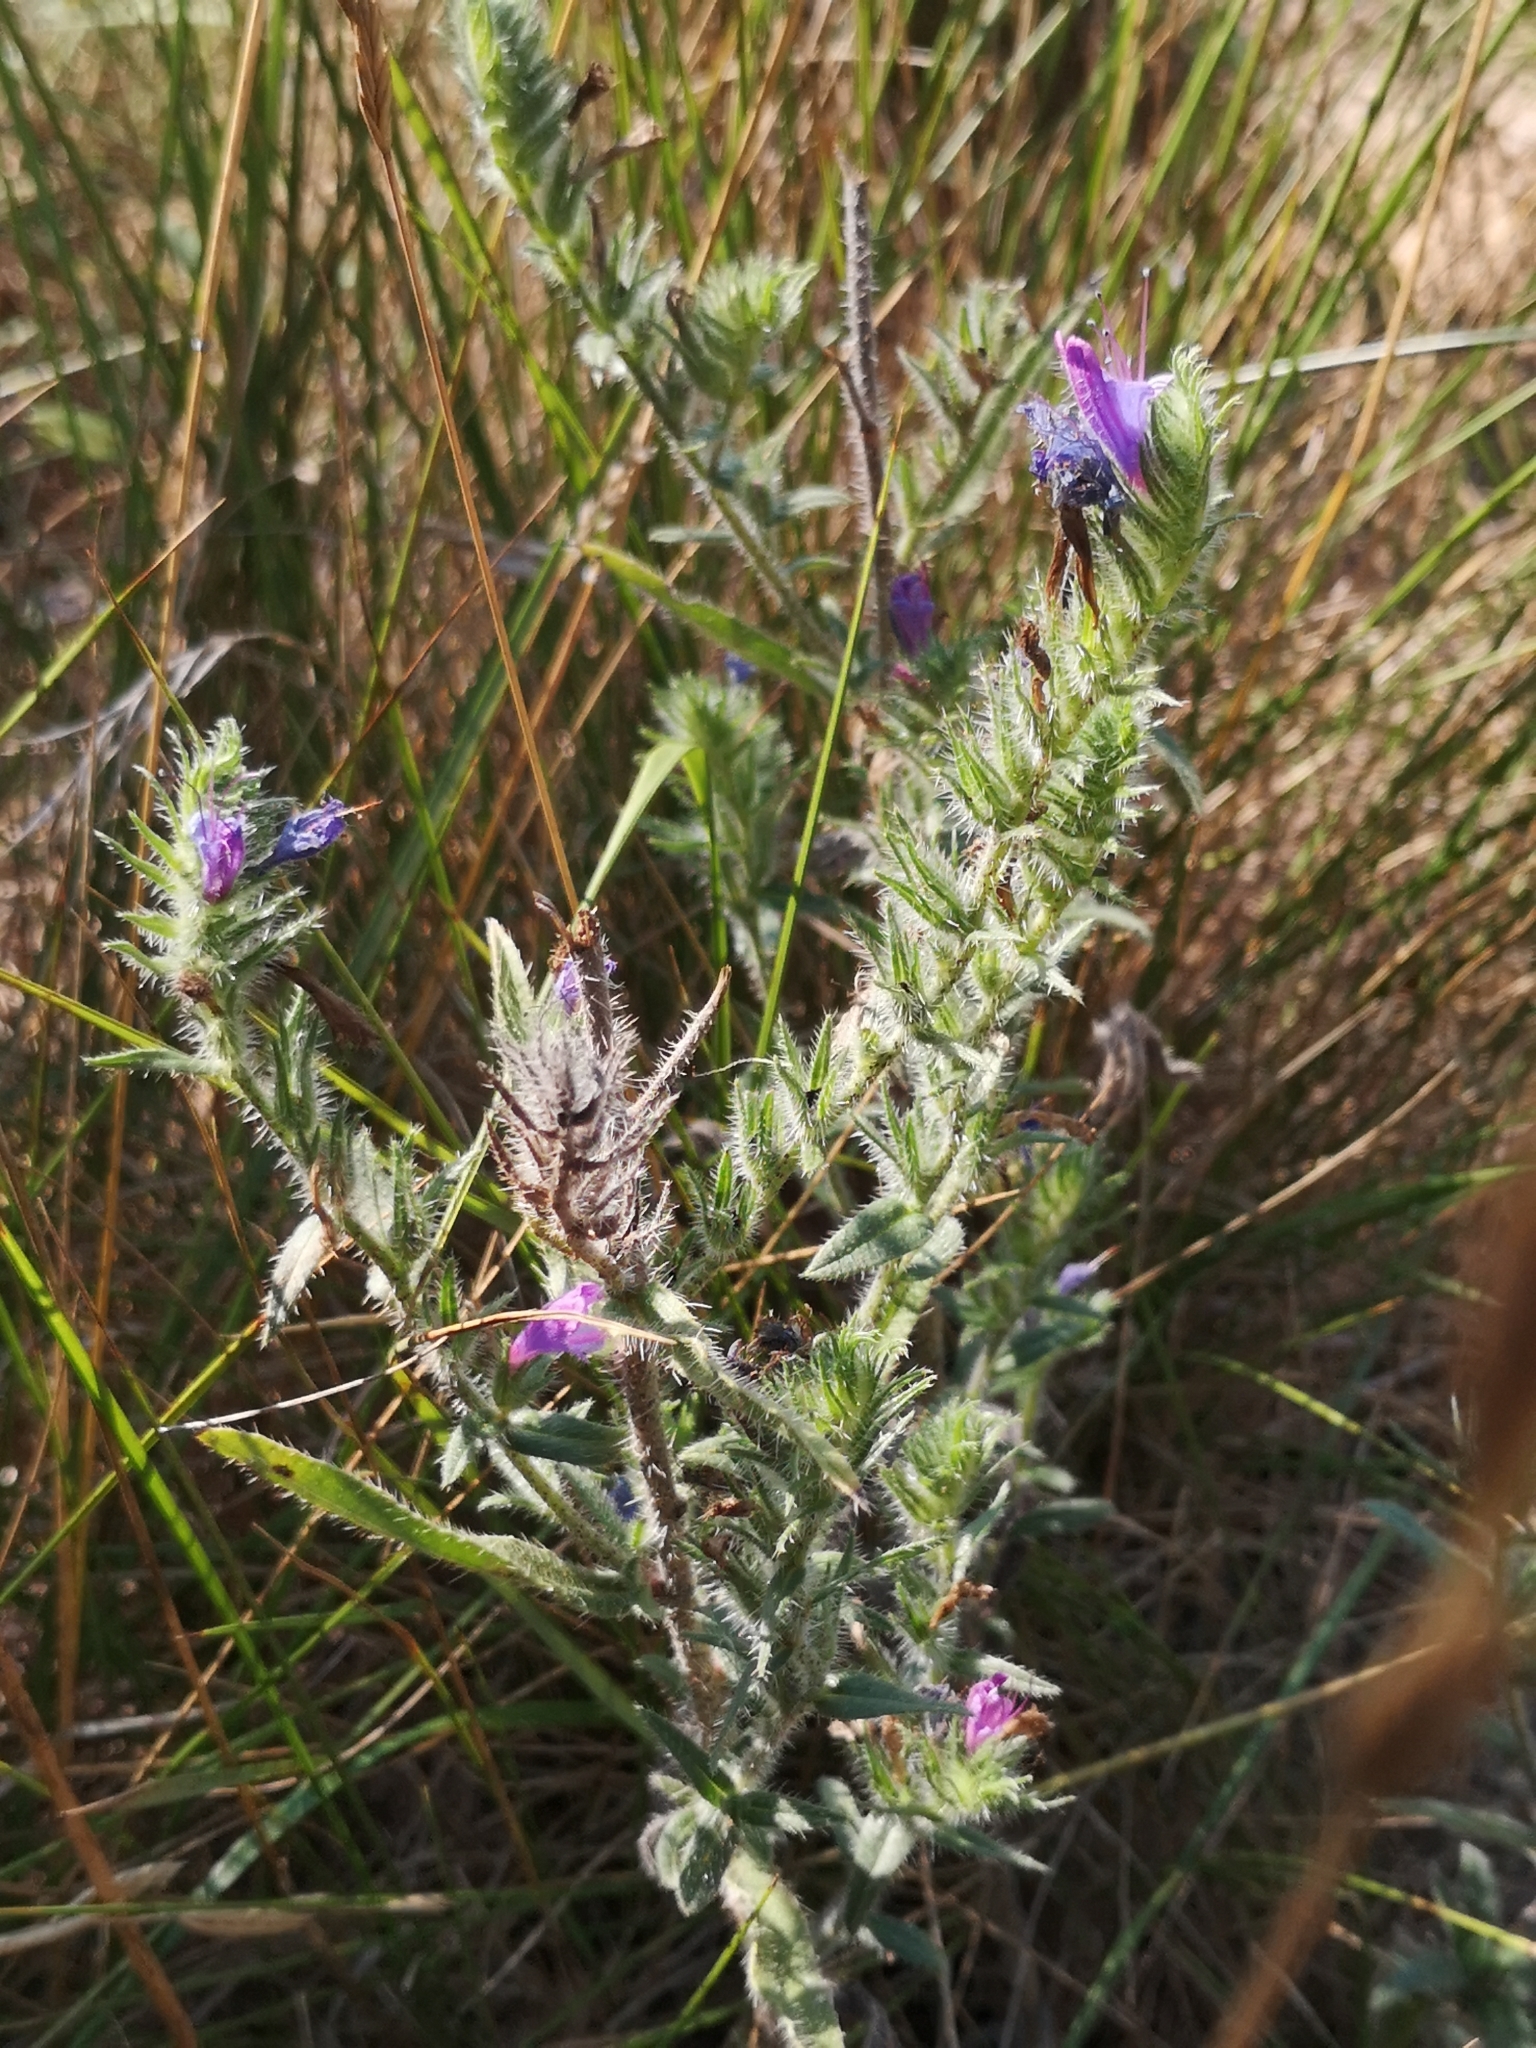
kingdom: Plantae
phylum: Tracheophyta
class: Magnoliopsida
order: Boraginales
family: Boraginaceae
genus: Echium
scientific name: Echium vulgare
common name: Common viper's bugloss
